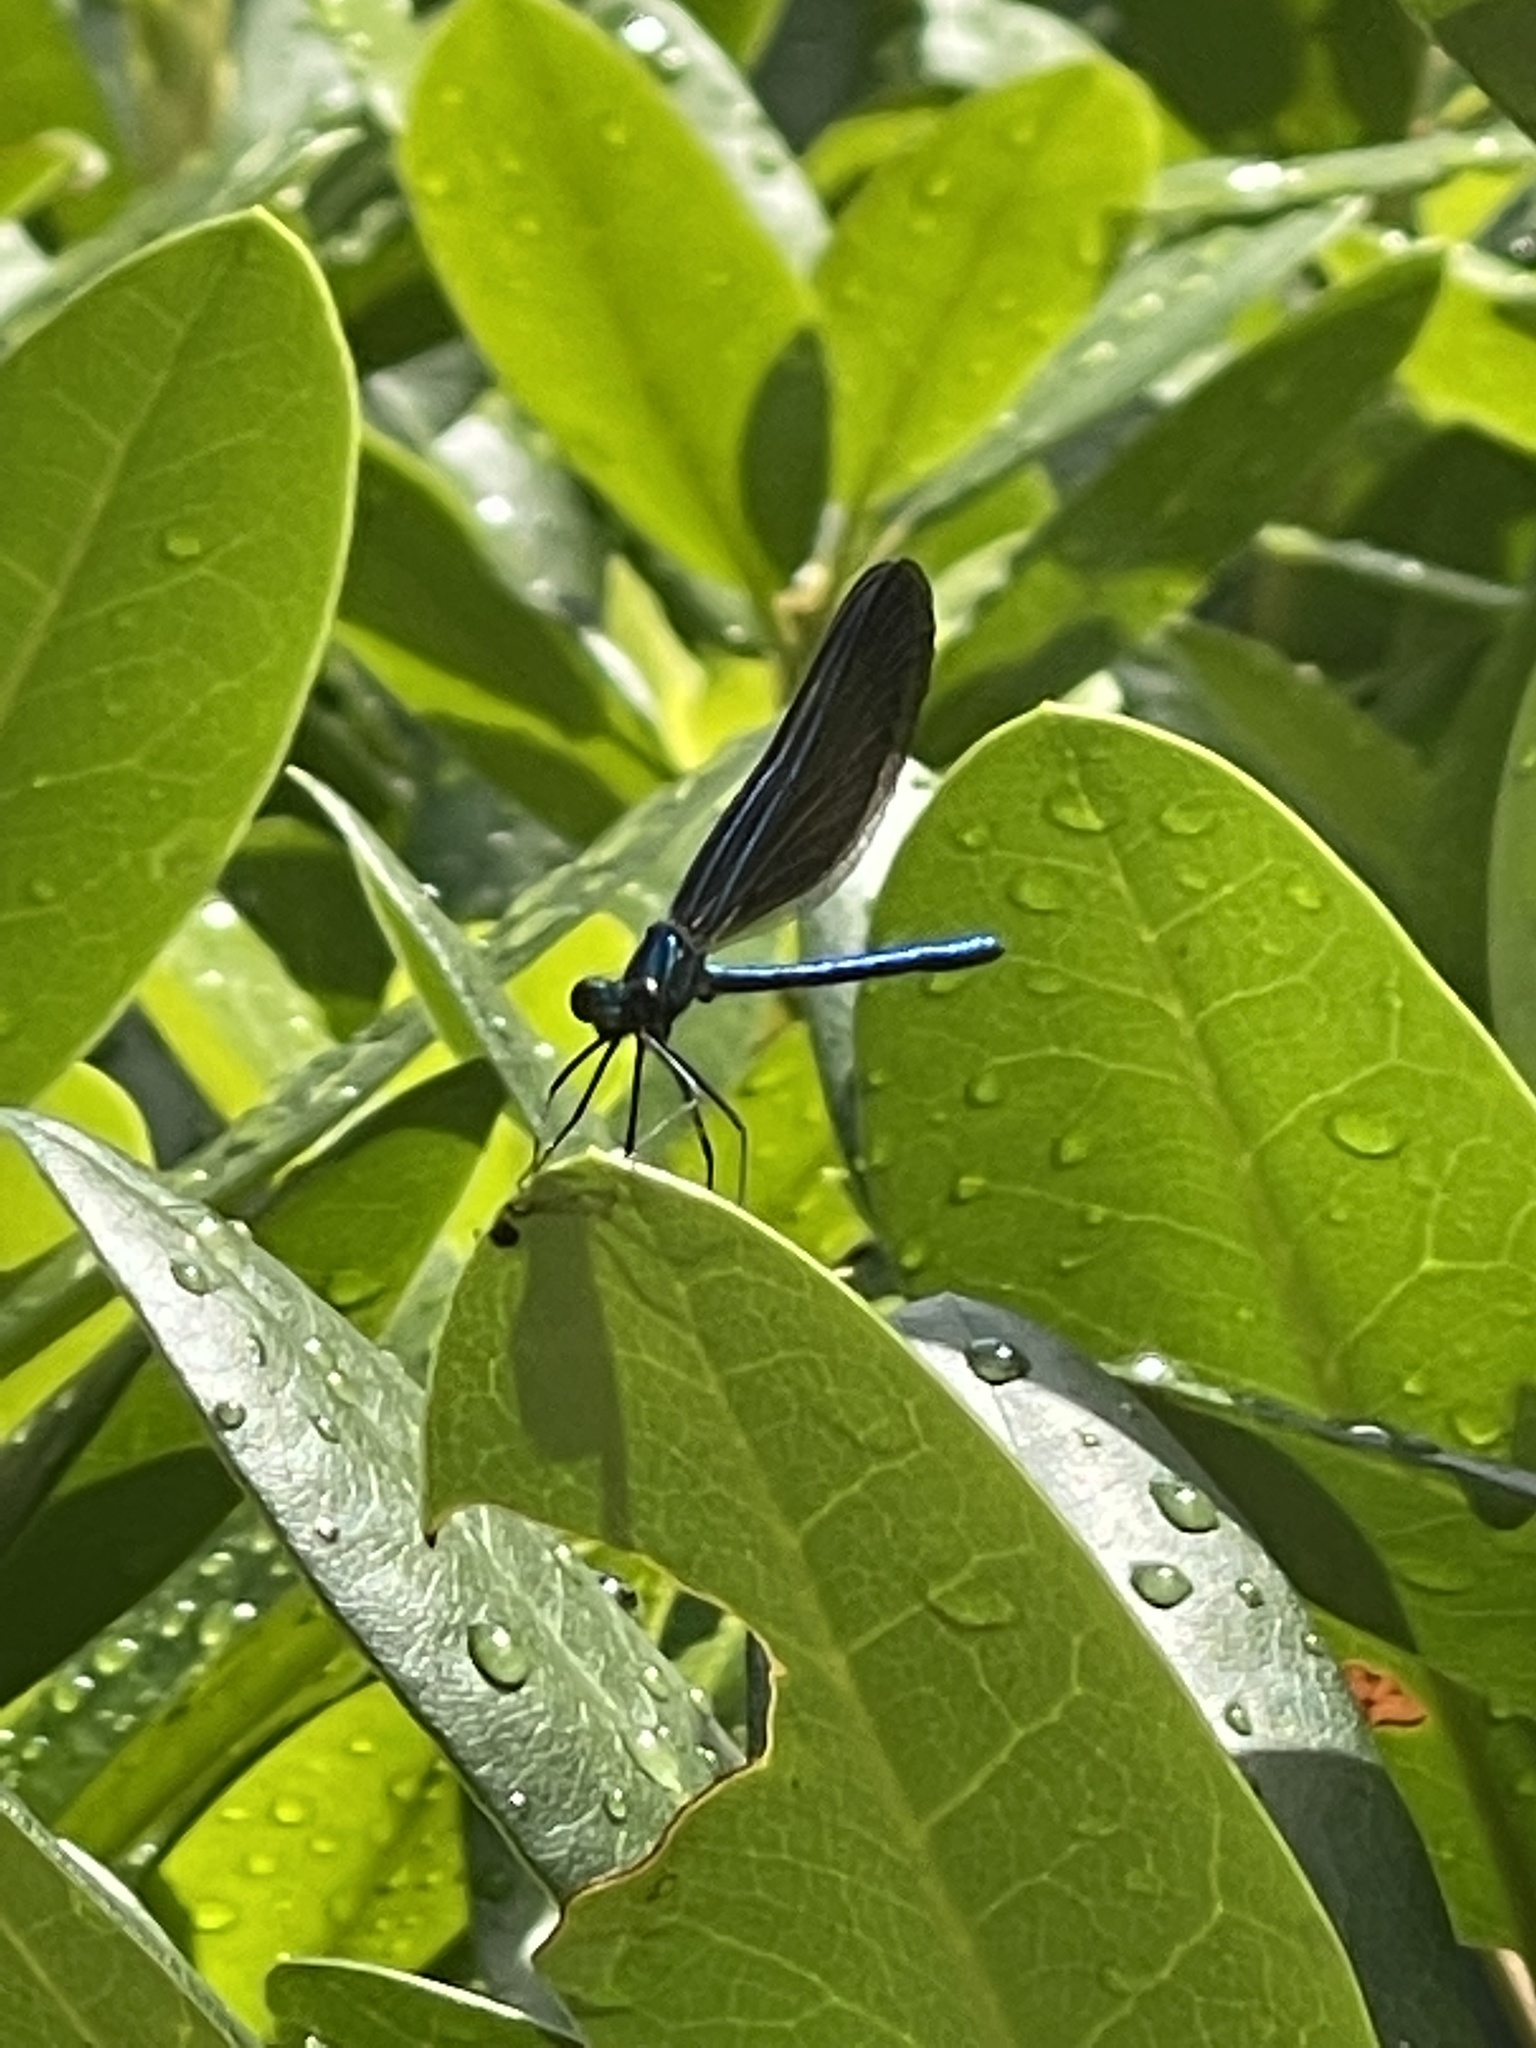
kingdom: Animalia
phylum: Arthropoda
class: Insecta
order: Odonata
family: Calopterygidae
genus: Calopteryx
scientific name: Calopteryx maculata
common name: Ebony jewelwing
